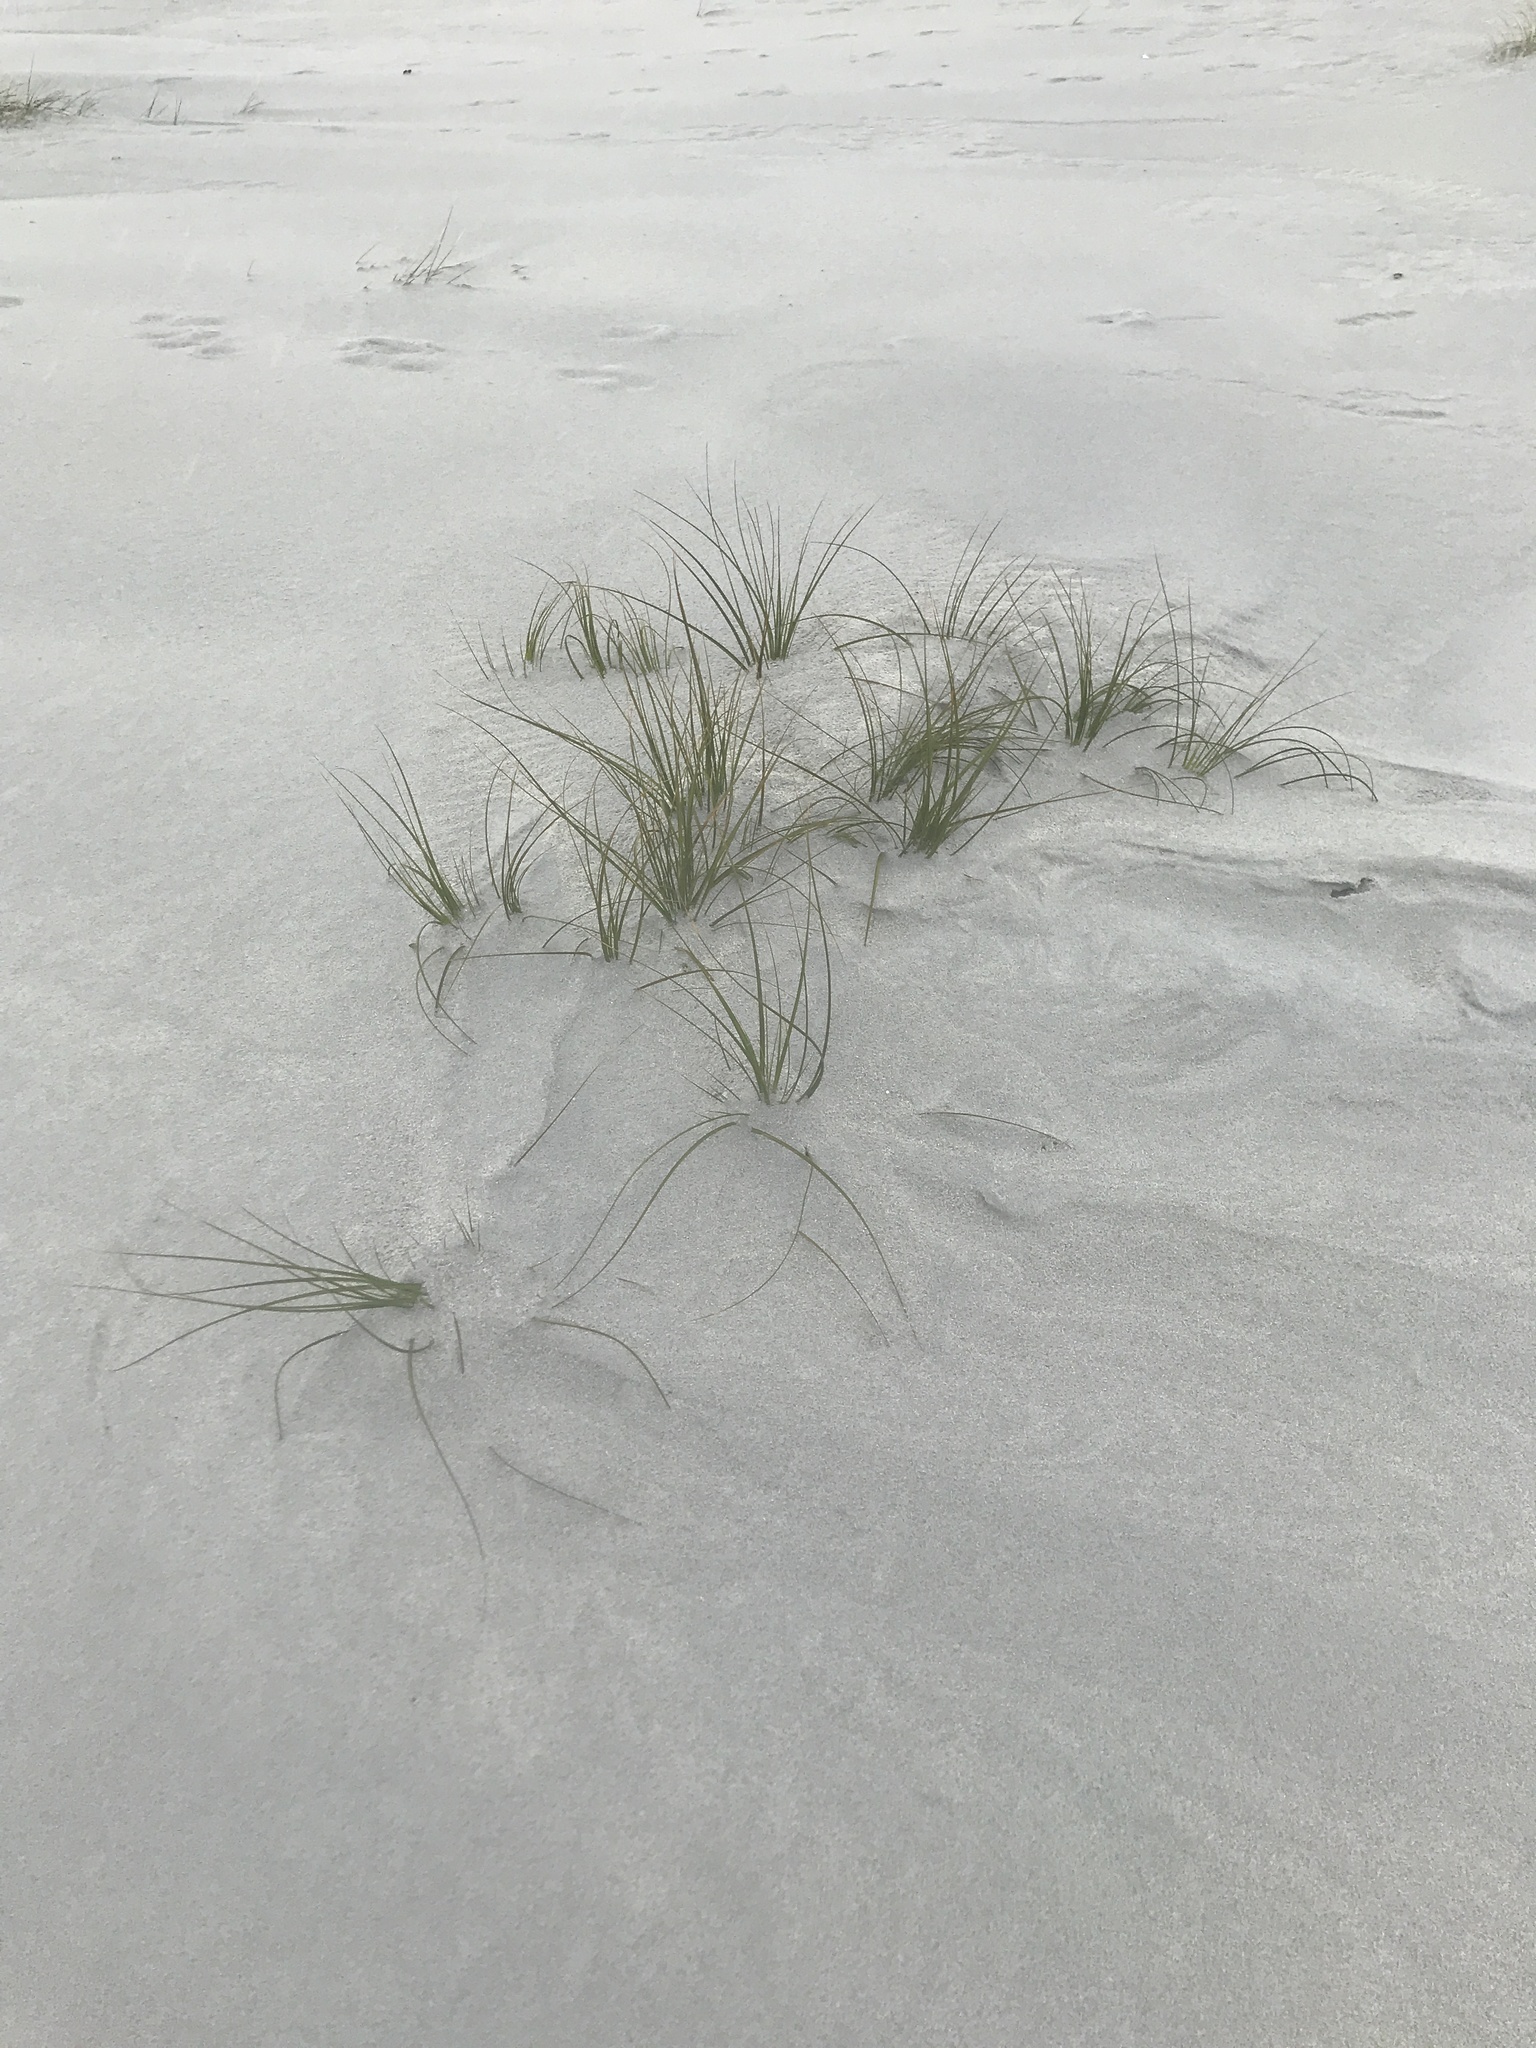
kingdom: Plantae
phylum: Tracheophyta
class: Liliopsida
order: Poales
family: Cyperaceae
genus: Ficinia
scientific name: Ficinia spiralis
